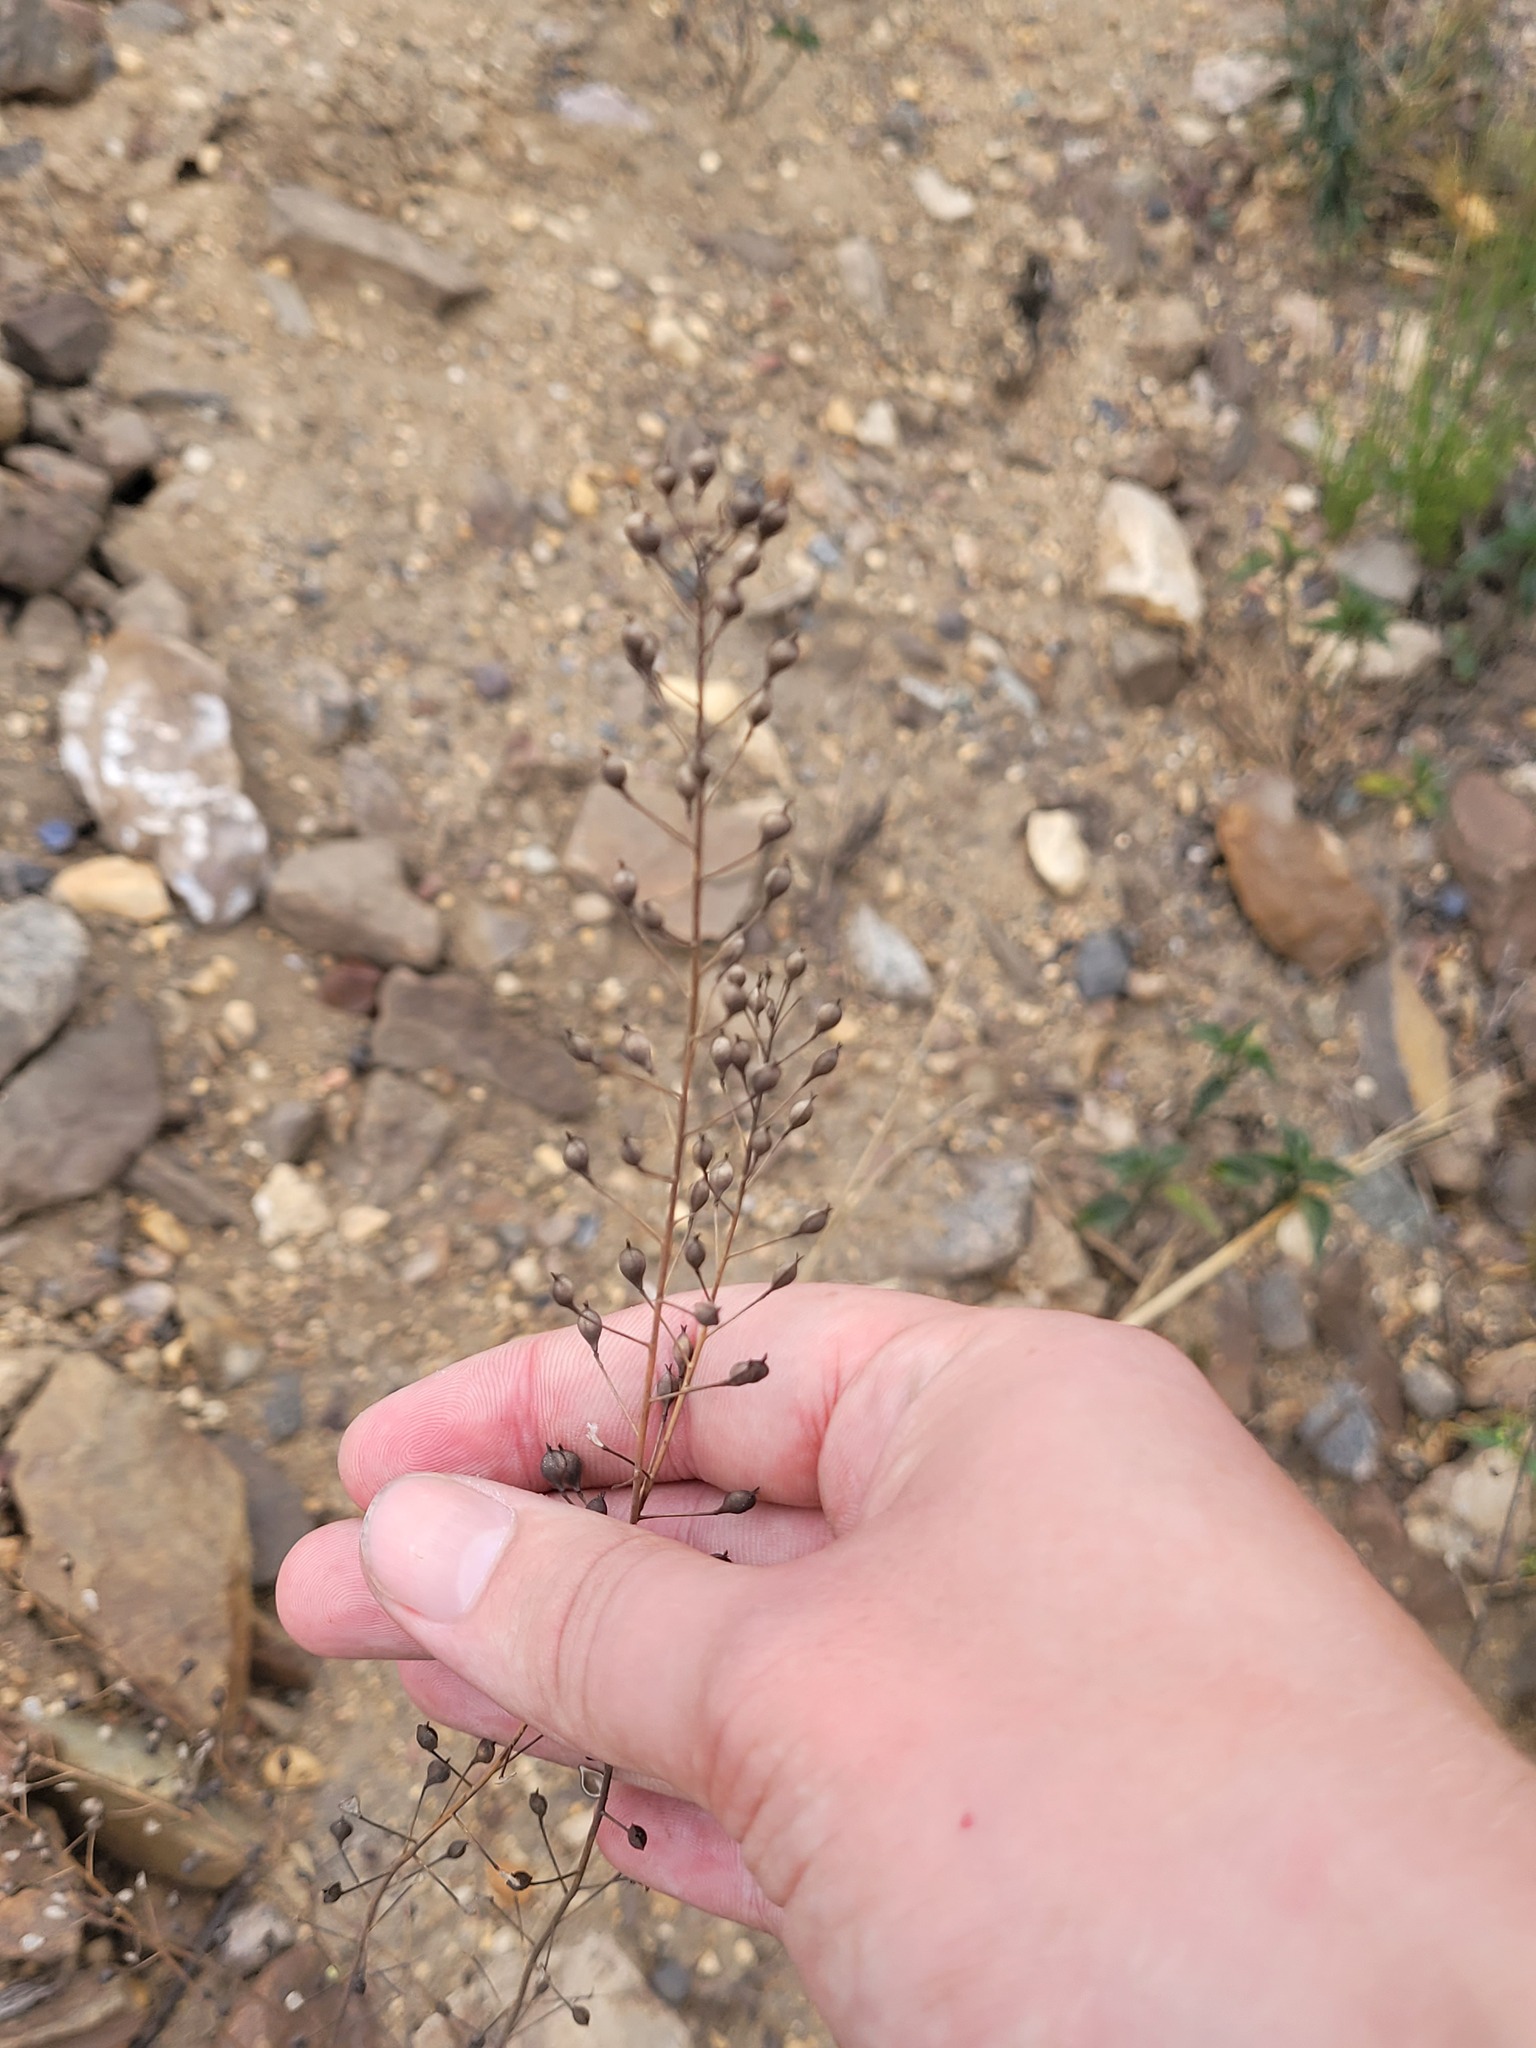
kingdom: Plantae
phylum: Tracheophyta
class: Magnoliopsida
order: Brassicales
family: Brassicaceae
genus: Camelina
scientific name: Camelina microcarpa
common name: Lesser gold-of-pleasure
